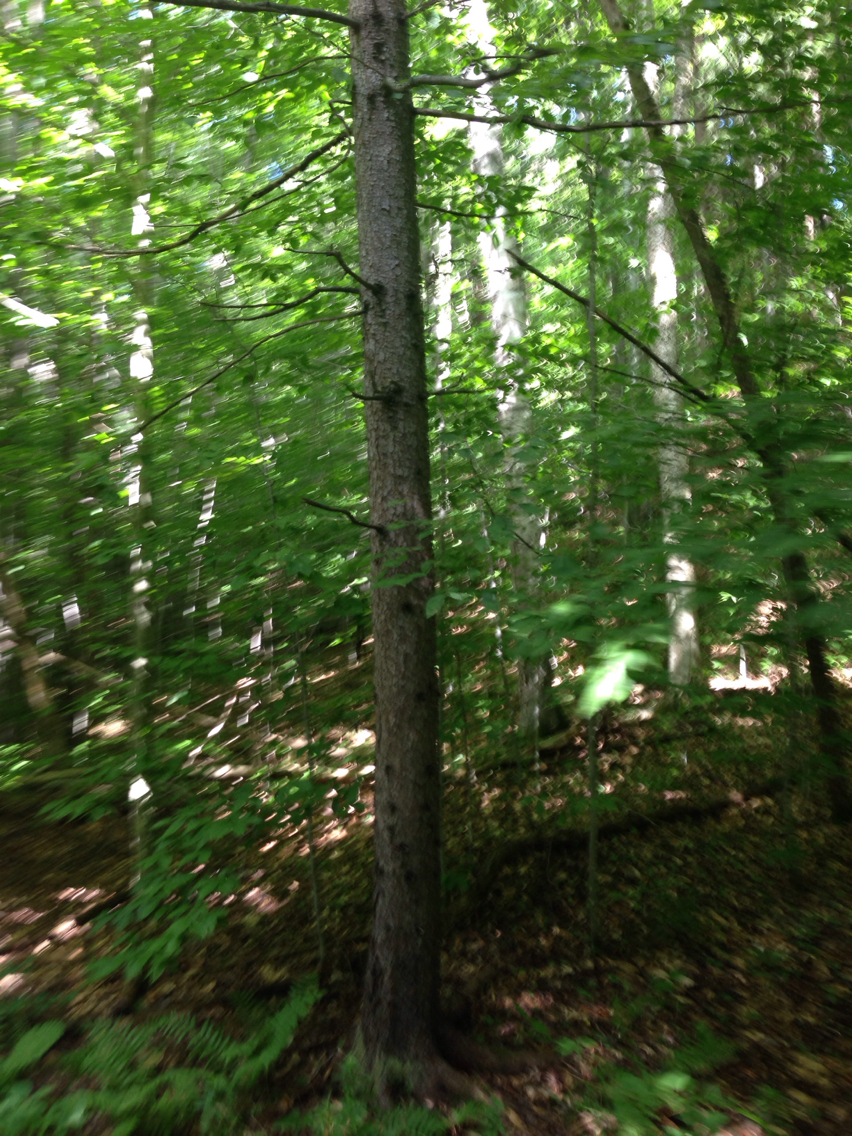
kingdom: Plantae
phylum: Tracheophyta
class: Pinopsida
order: Pinales
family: Pinaceae
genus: Picea
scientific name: Picea rubens
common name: Red spruce
